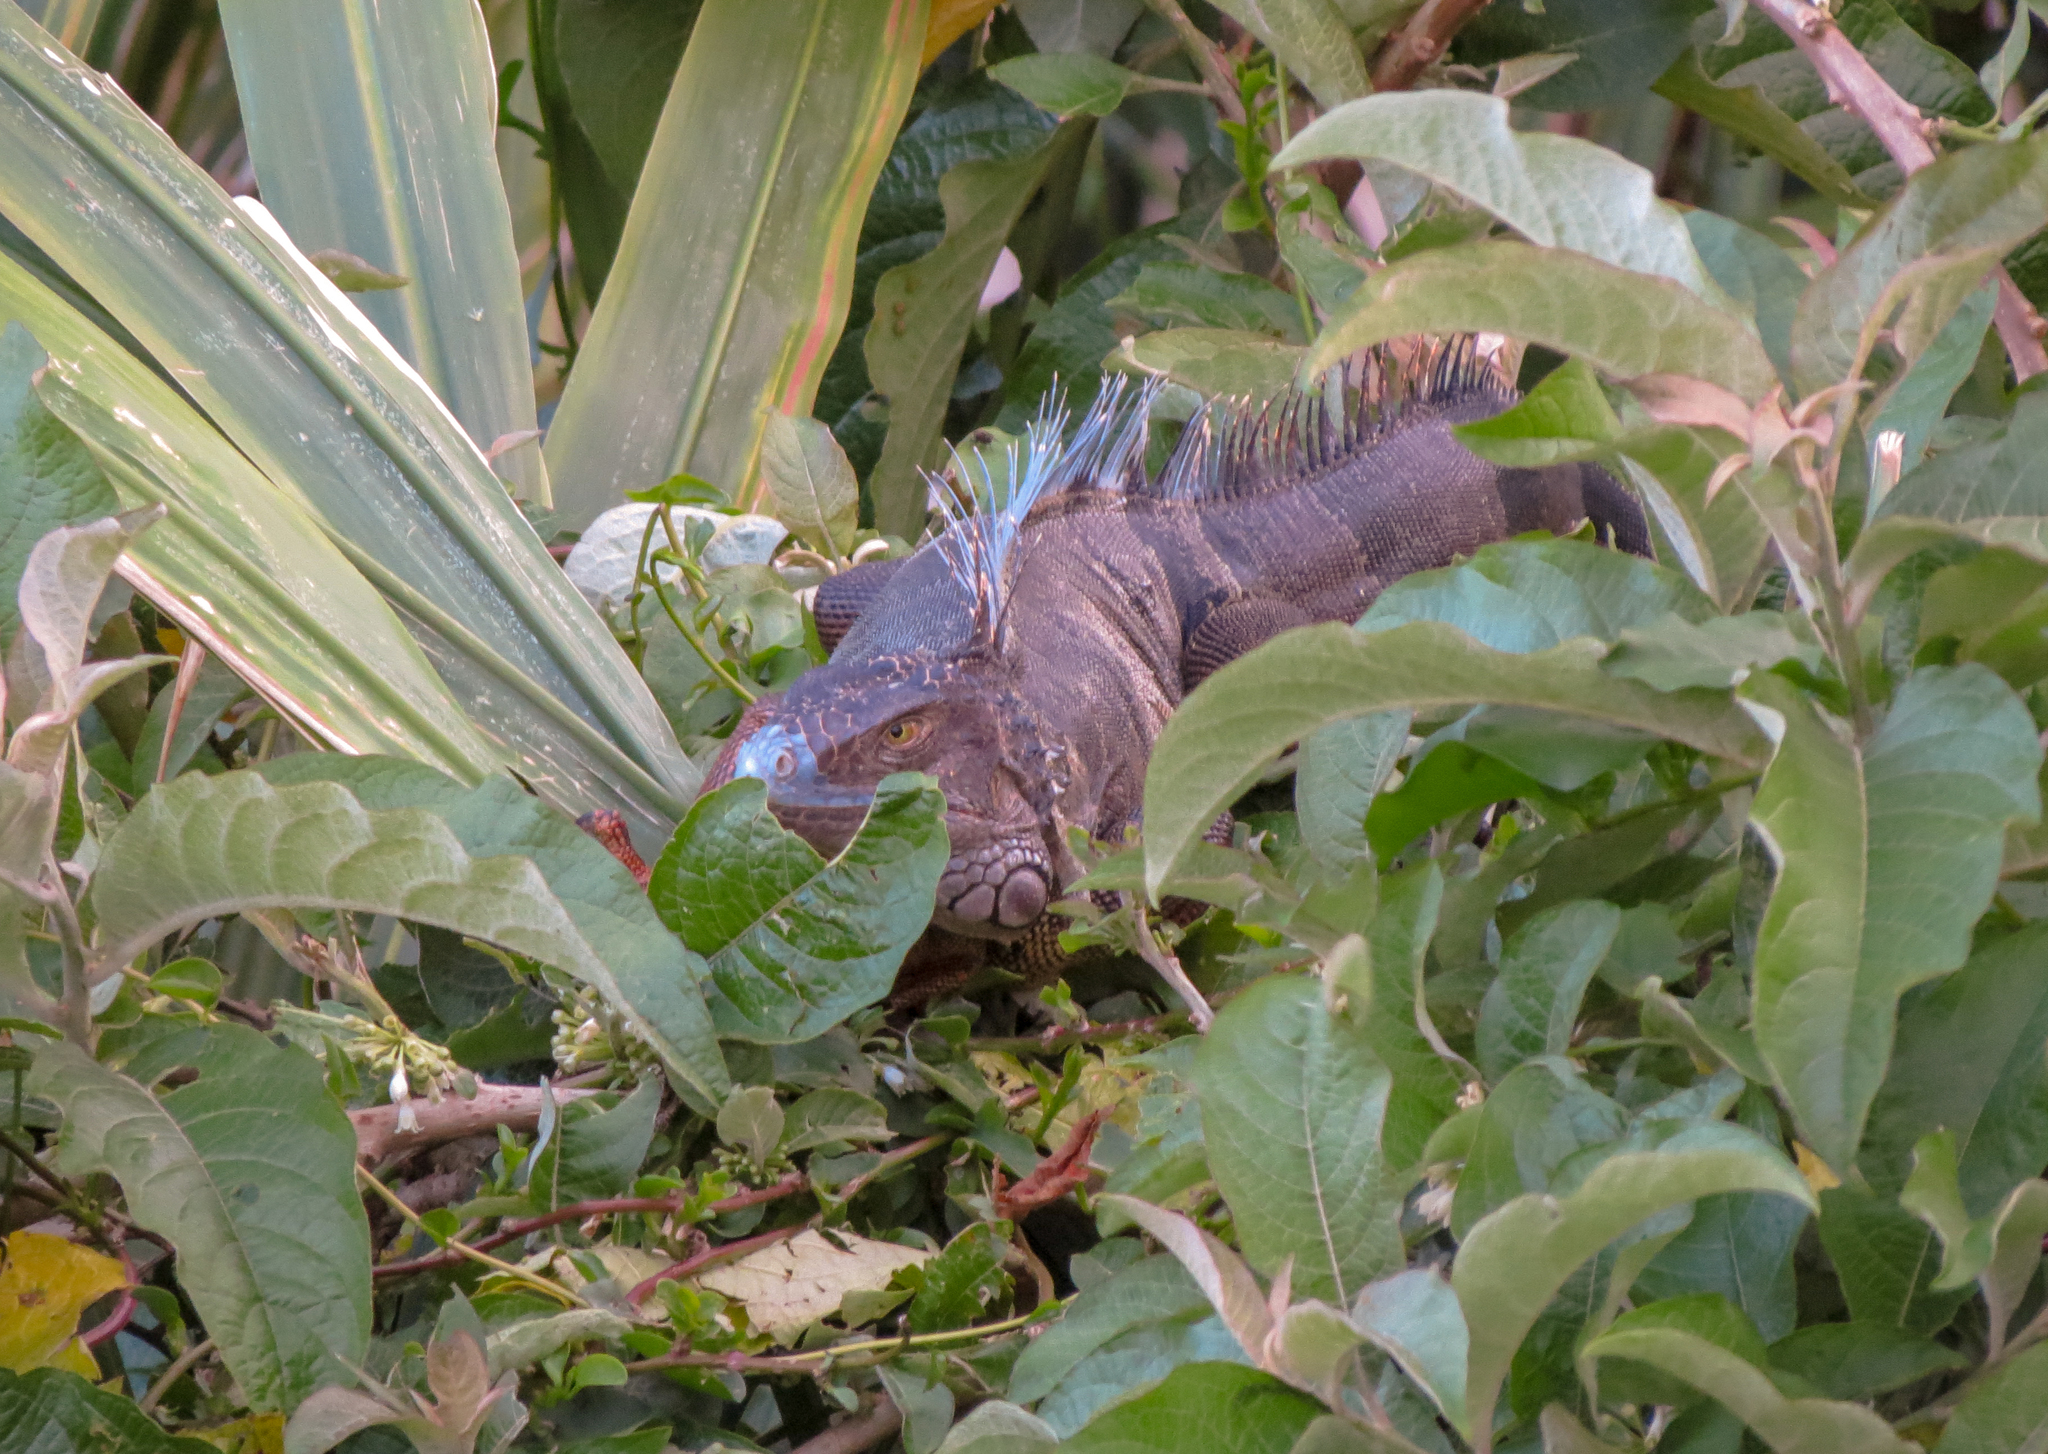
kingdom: Animalia
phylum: Chordata
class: Squamata
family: Iguanidae
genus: Iguana
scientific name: Iguana iguana
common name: Green iguana
